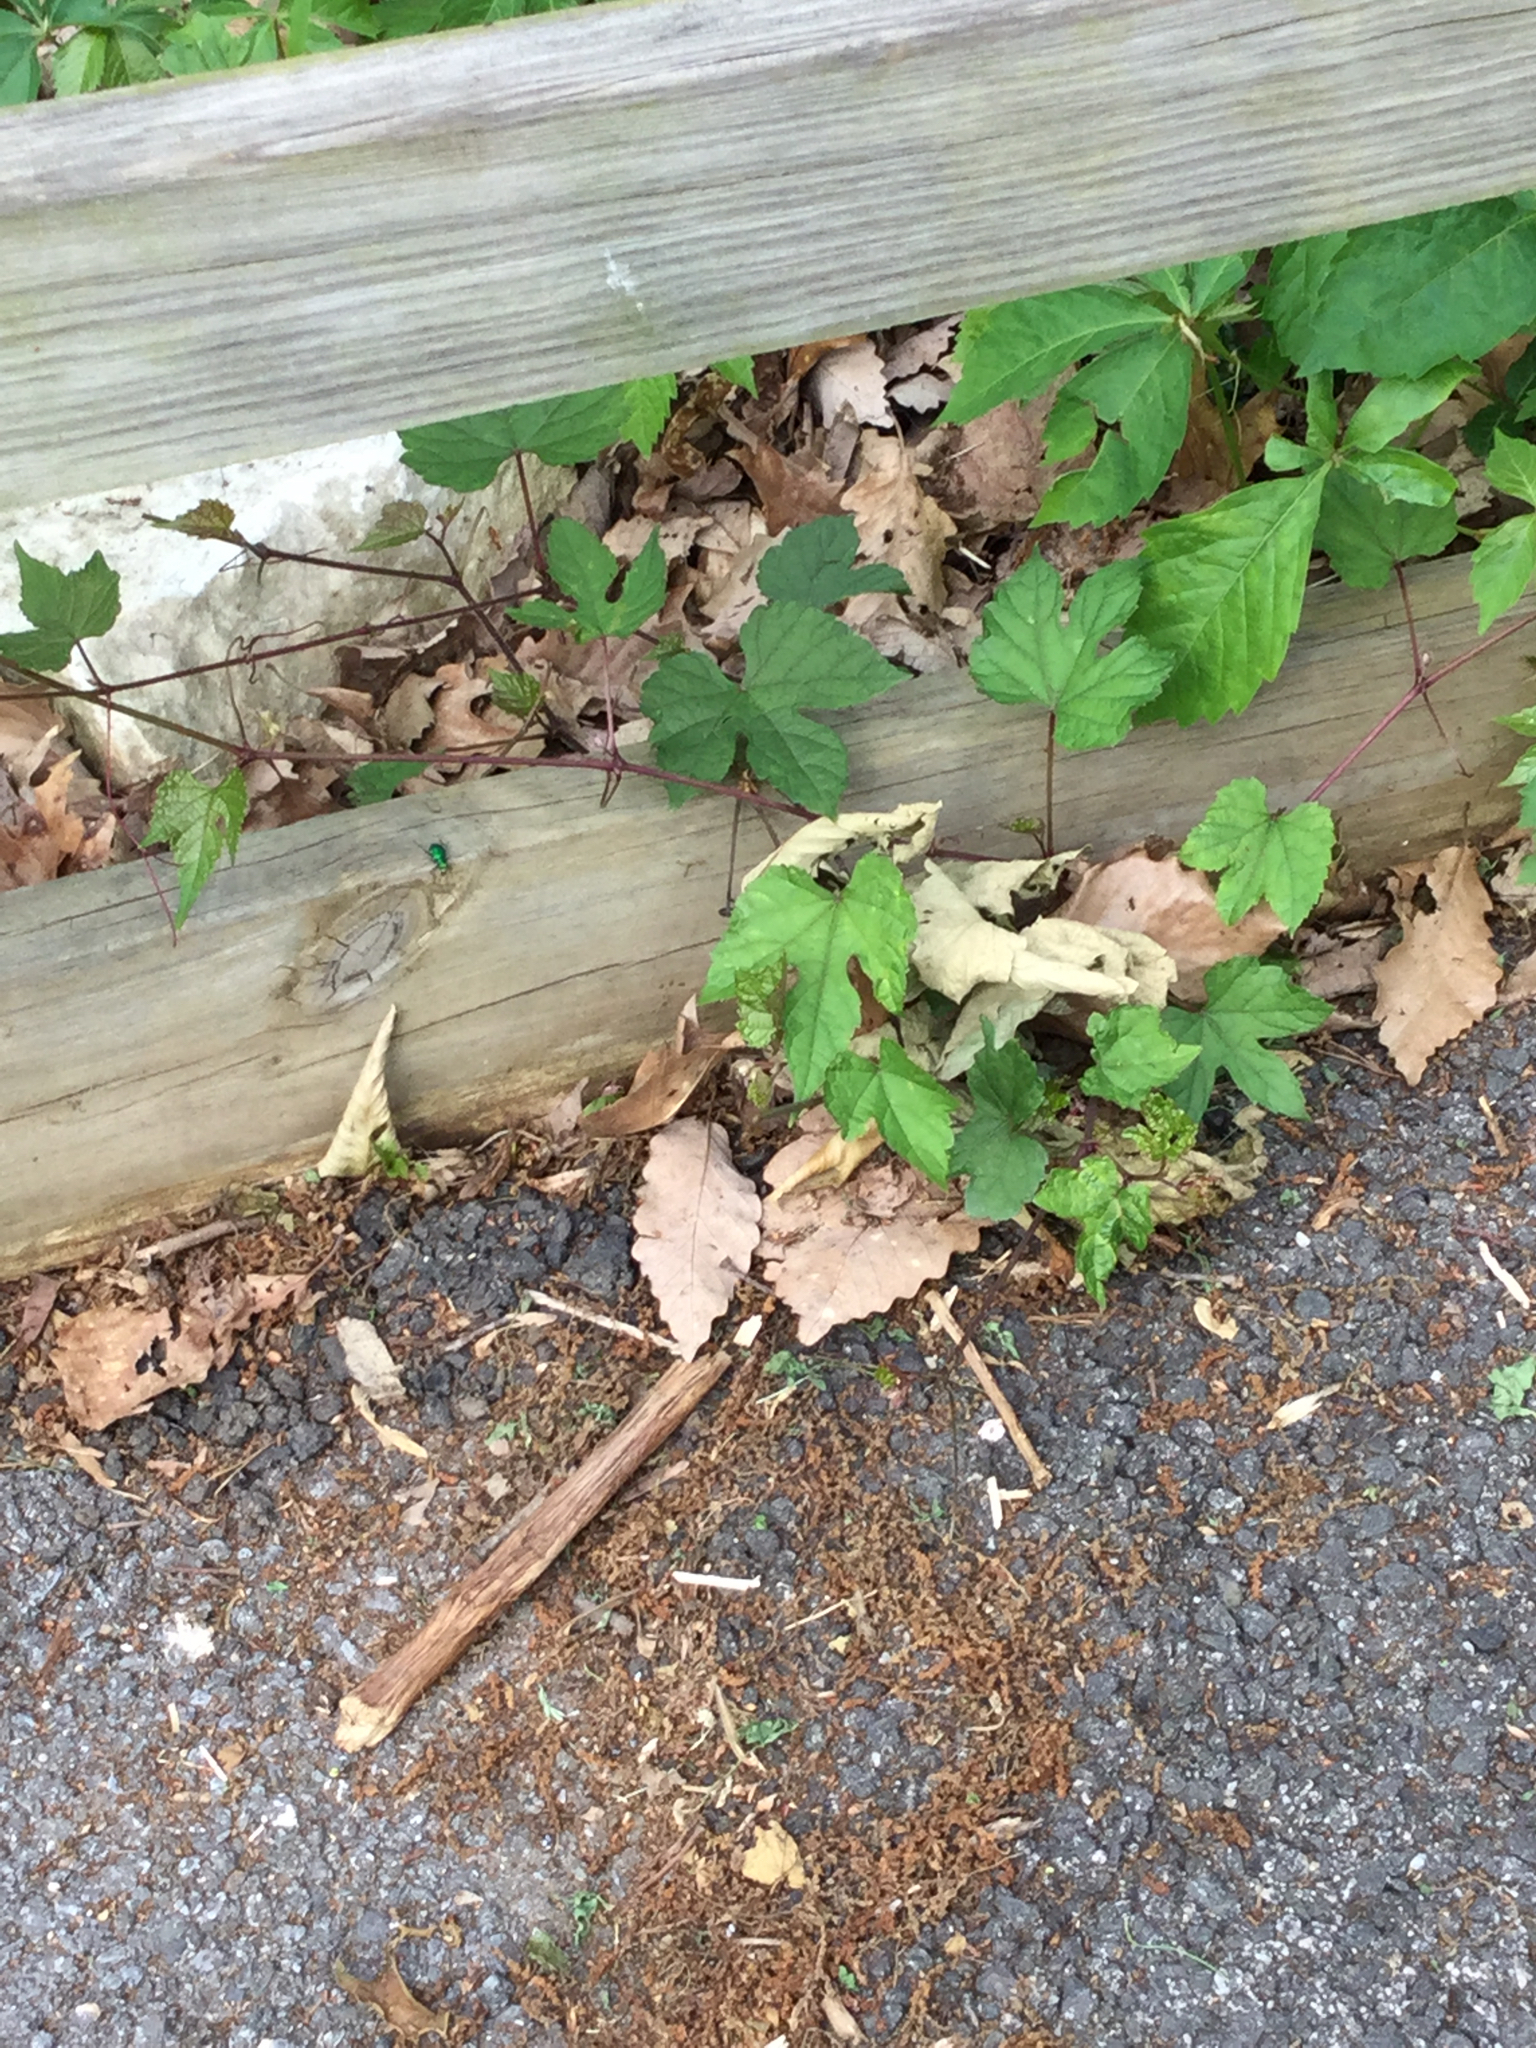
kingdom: Animalia
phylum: Arthropoda
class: Insecta
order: Coleoptera
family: Carabidae
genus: Cicindela
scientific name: Cicindela sexguttata
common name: Six-spotted tiger beetle
